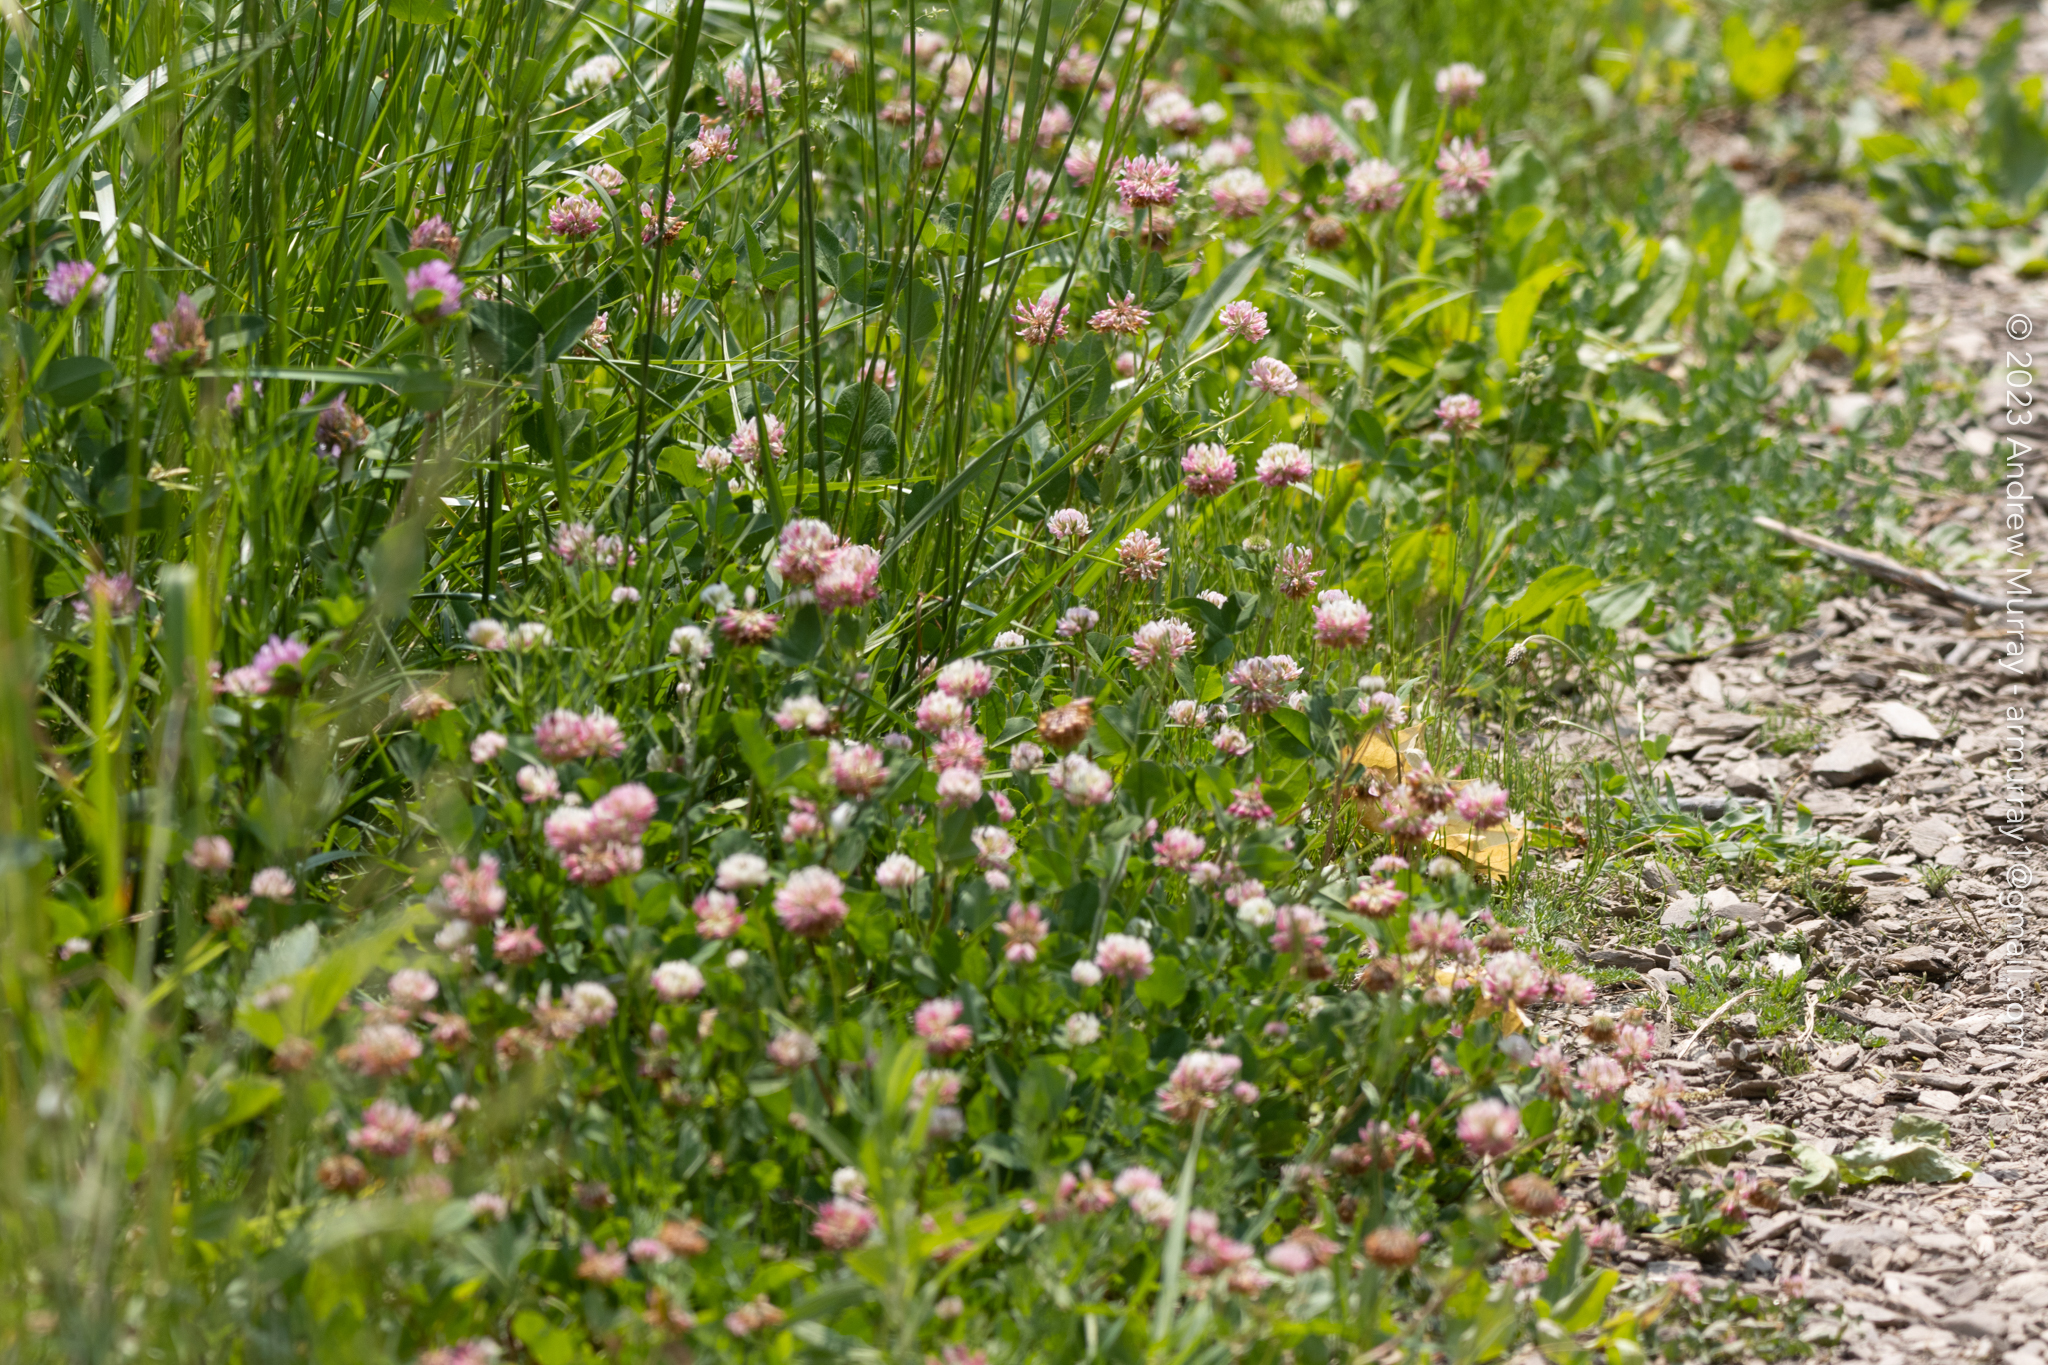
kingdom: Plantae
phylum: Tracheophyta
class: Magnoliopsida
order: Fabales
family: Fabaceae
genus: Trifolium
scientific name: Trifolium hybridum
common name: Alsike clover
